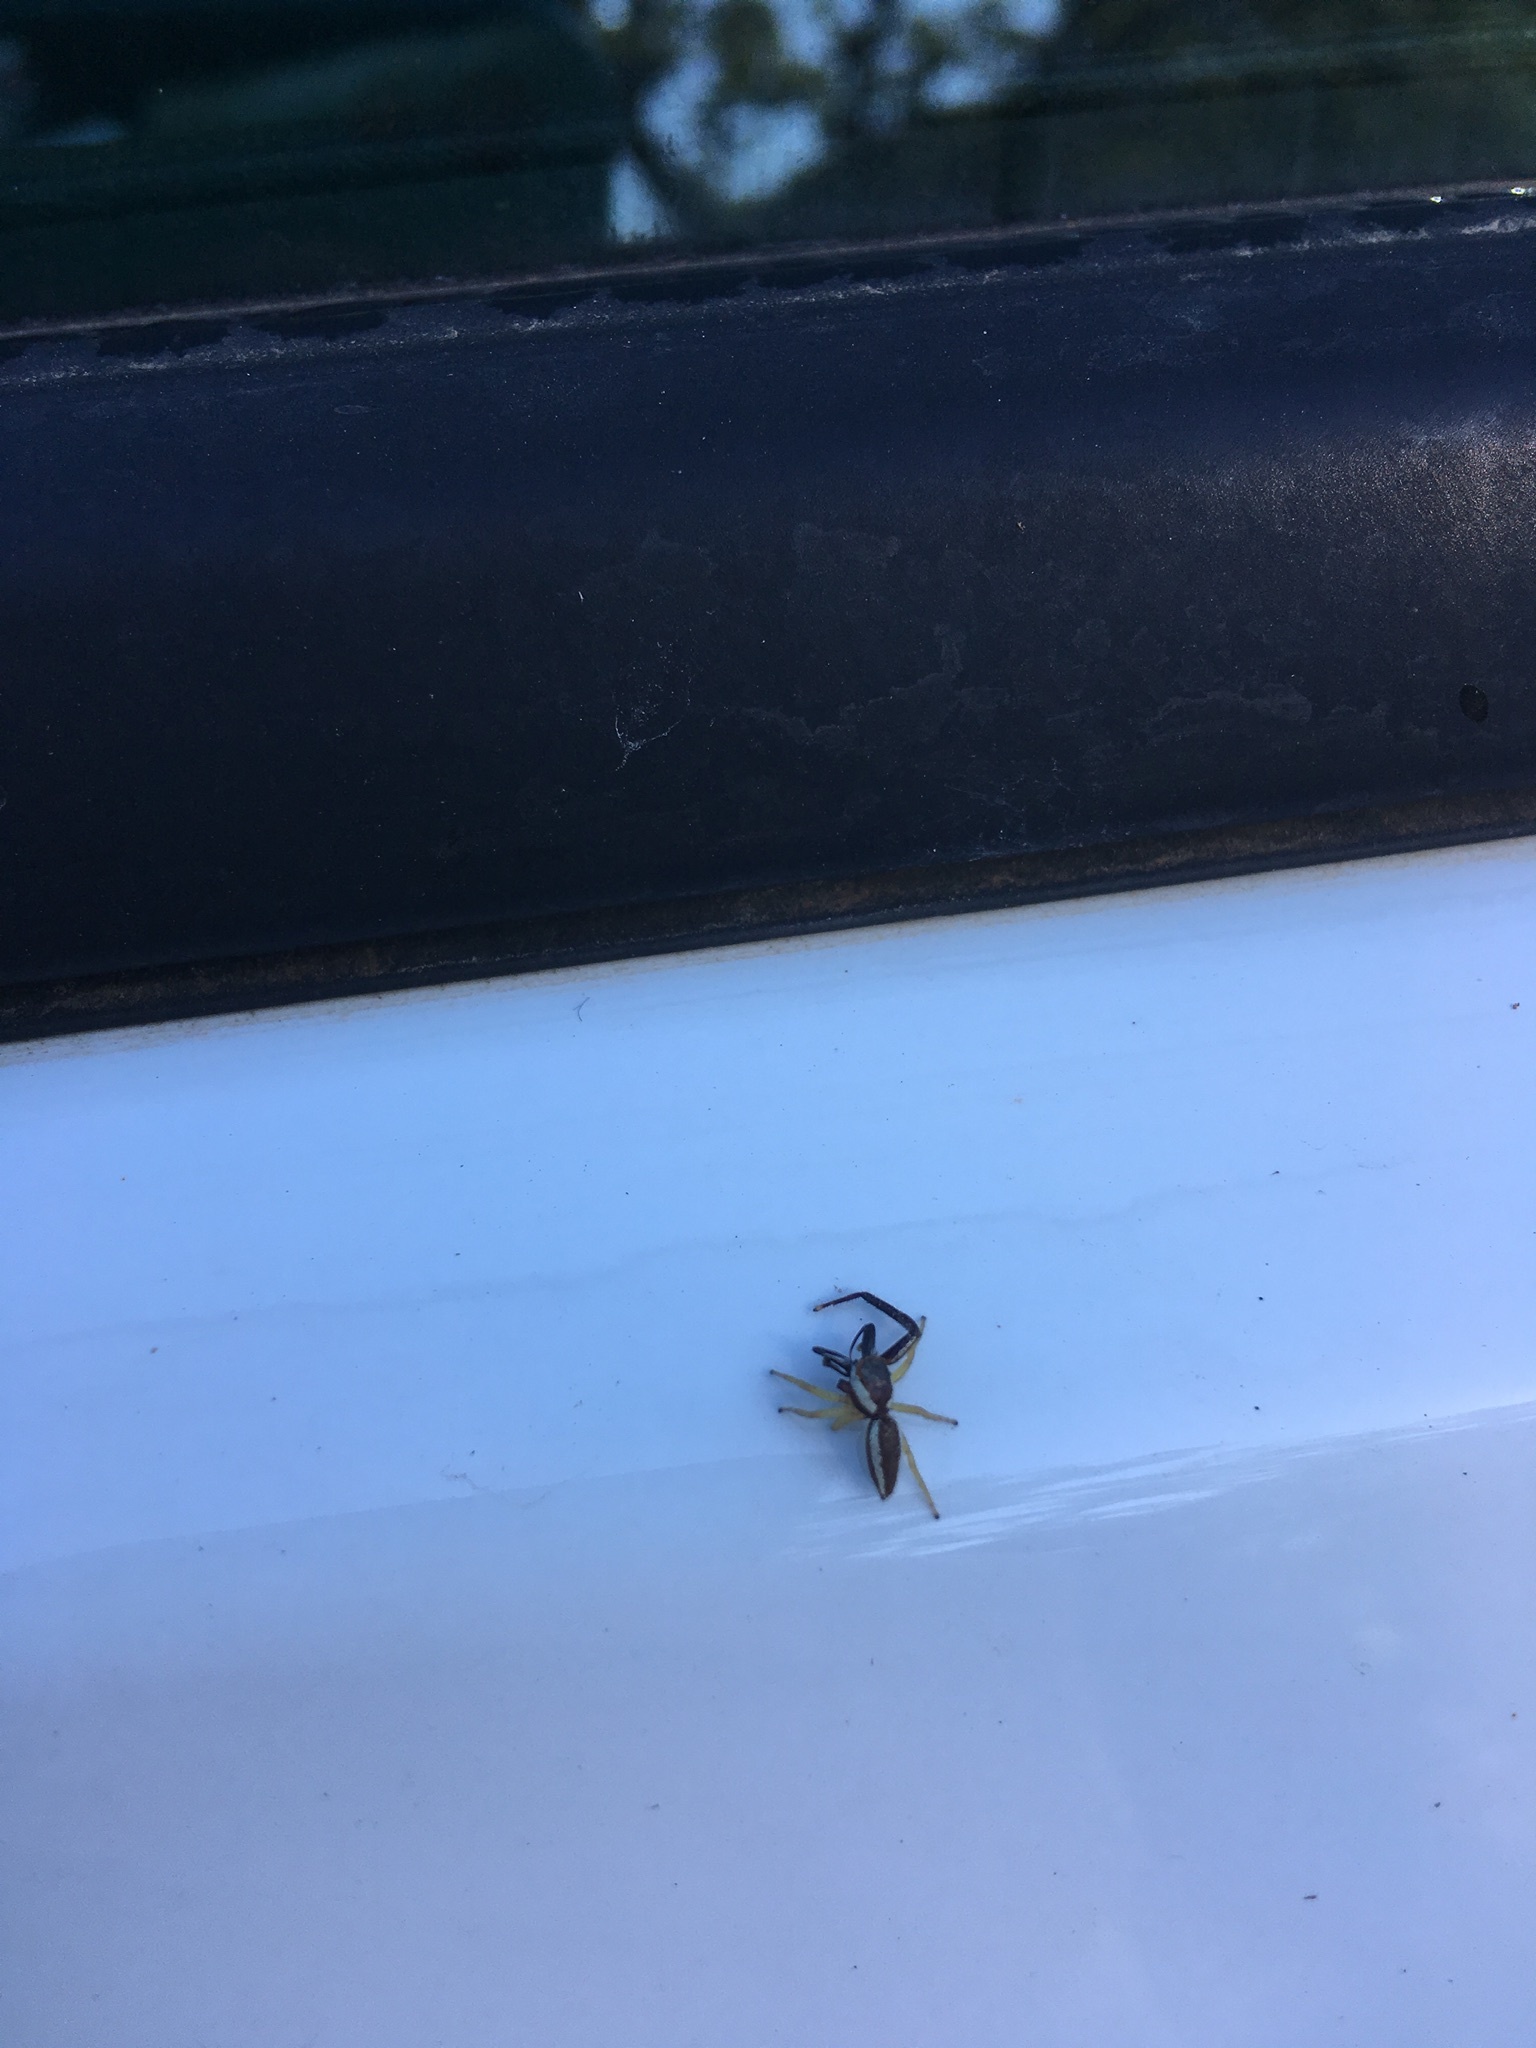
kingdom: Animalia
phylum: Arthropoda
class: Arachnida
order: Araneae
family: Salticidae
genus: Hentzia
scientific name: Hentzia palmarum
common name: Common hentz jumping spider
